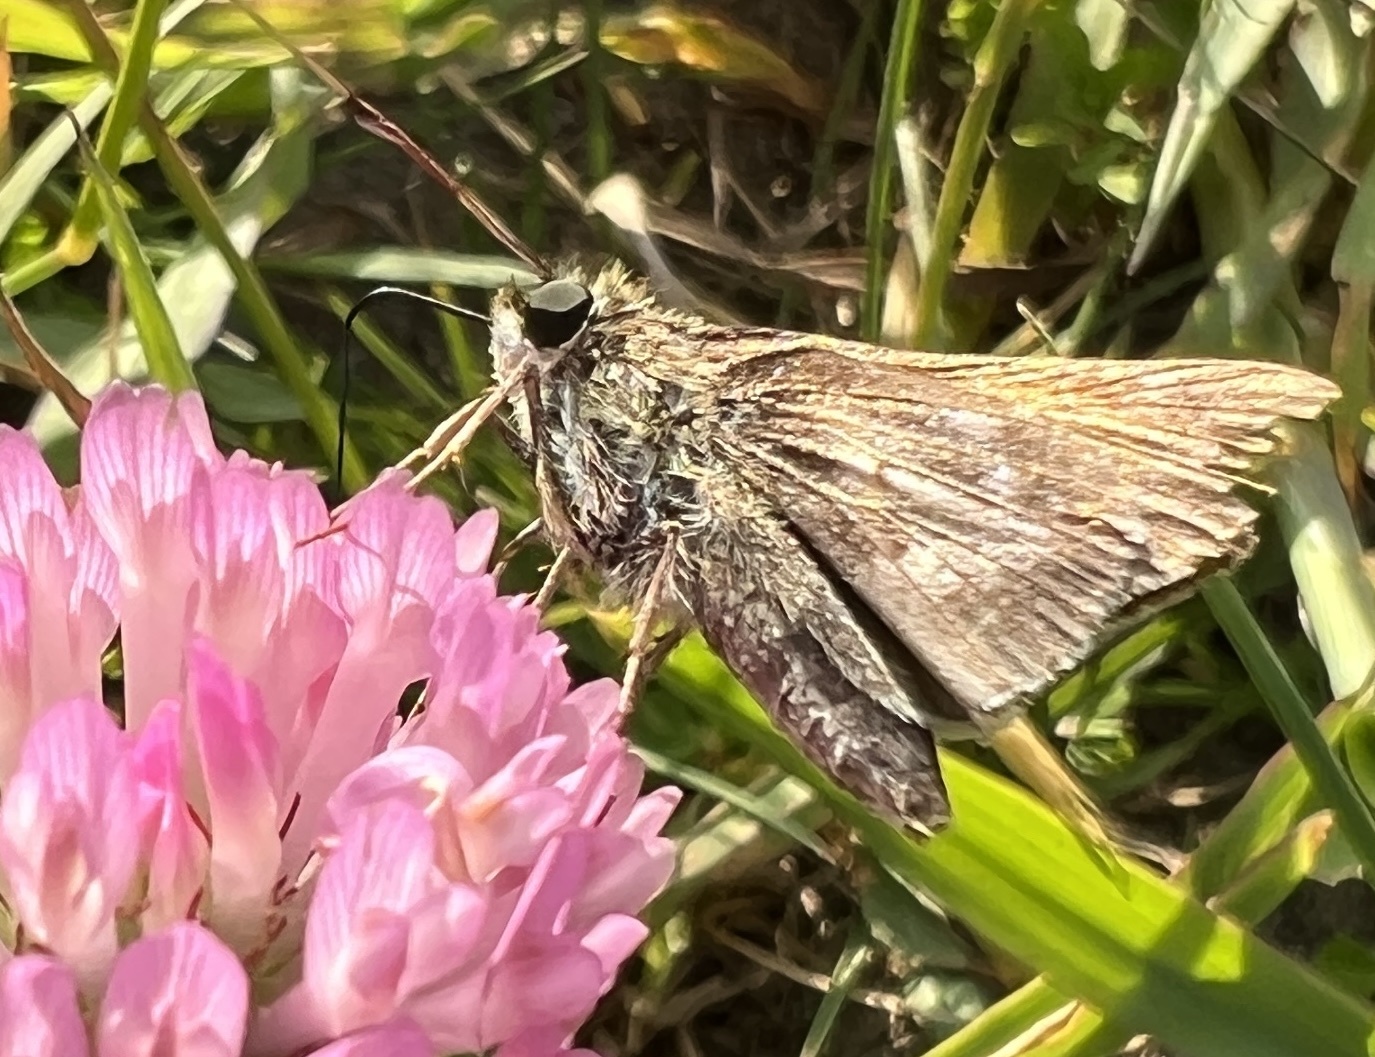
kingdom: Animalia
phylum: Arthropoda
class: Insecta
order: Lepidoptera
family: Hesperiidae
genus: Atalopedes
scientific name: Atalopedes
